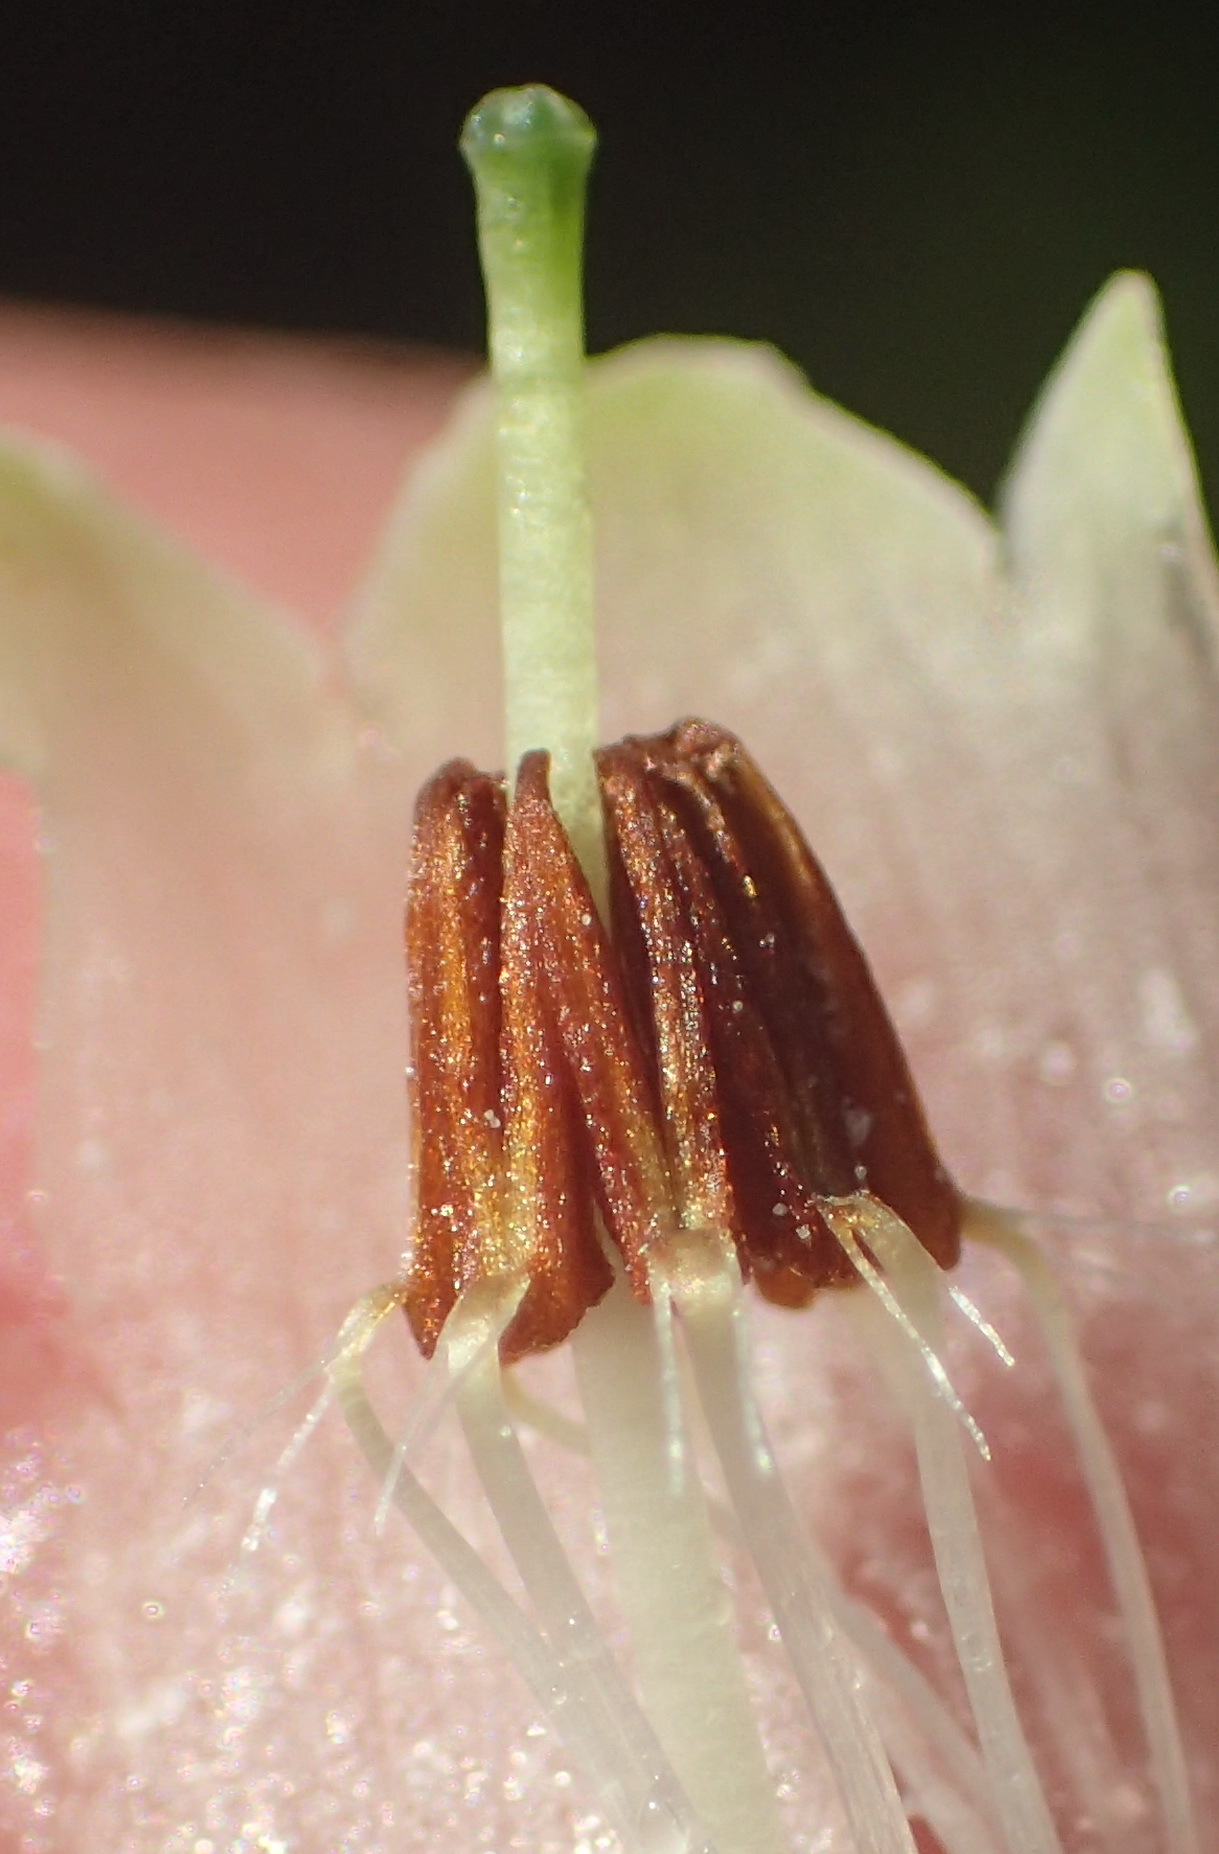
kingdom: Plantae
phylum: Tracheophyta
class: Magnoliopsida
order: Ericales
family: Ericaceae
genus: Erica
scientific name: Erica discolor
